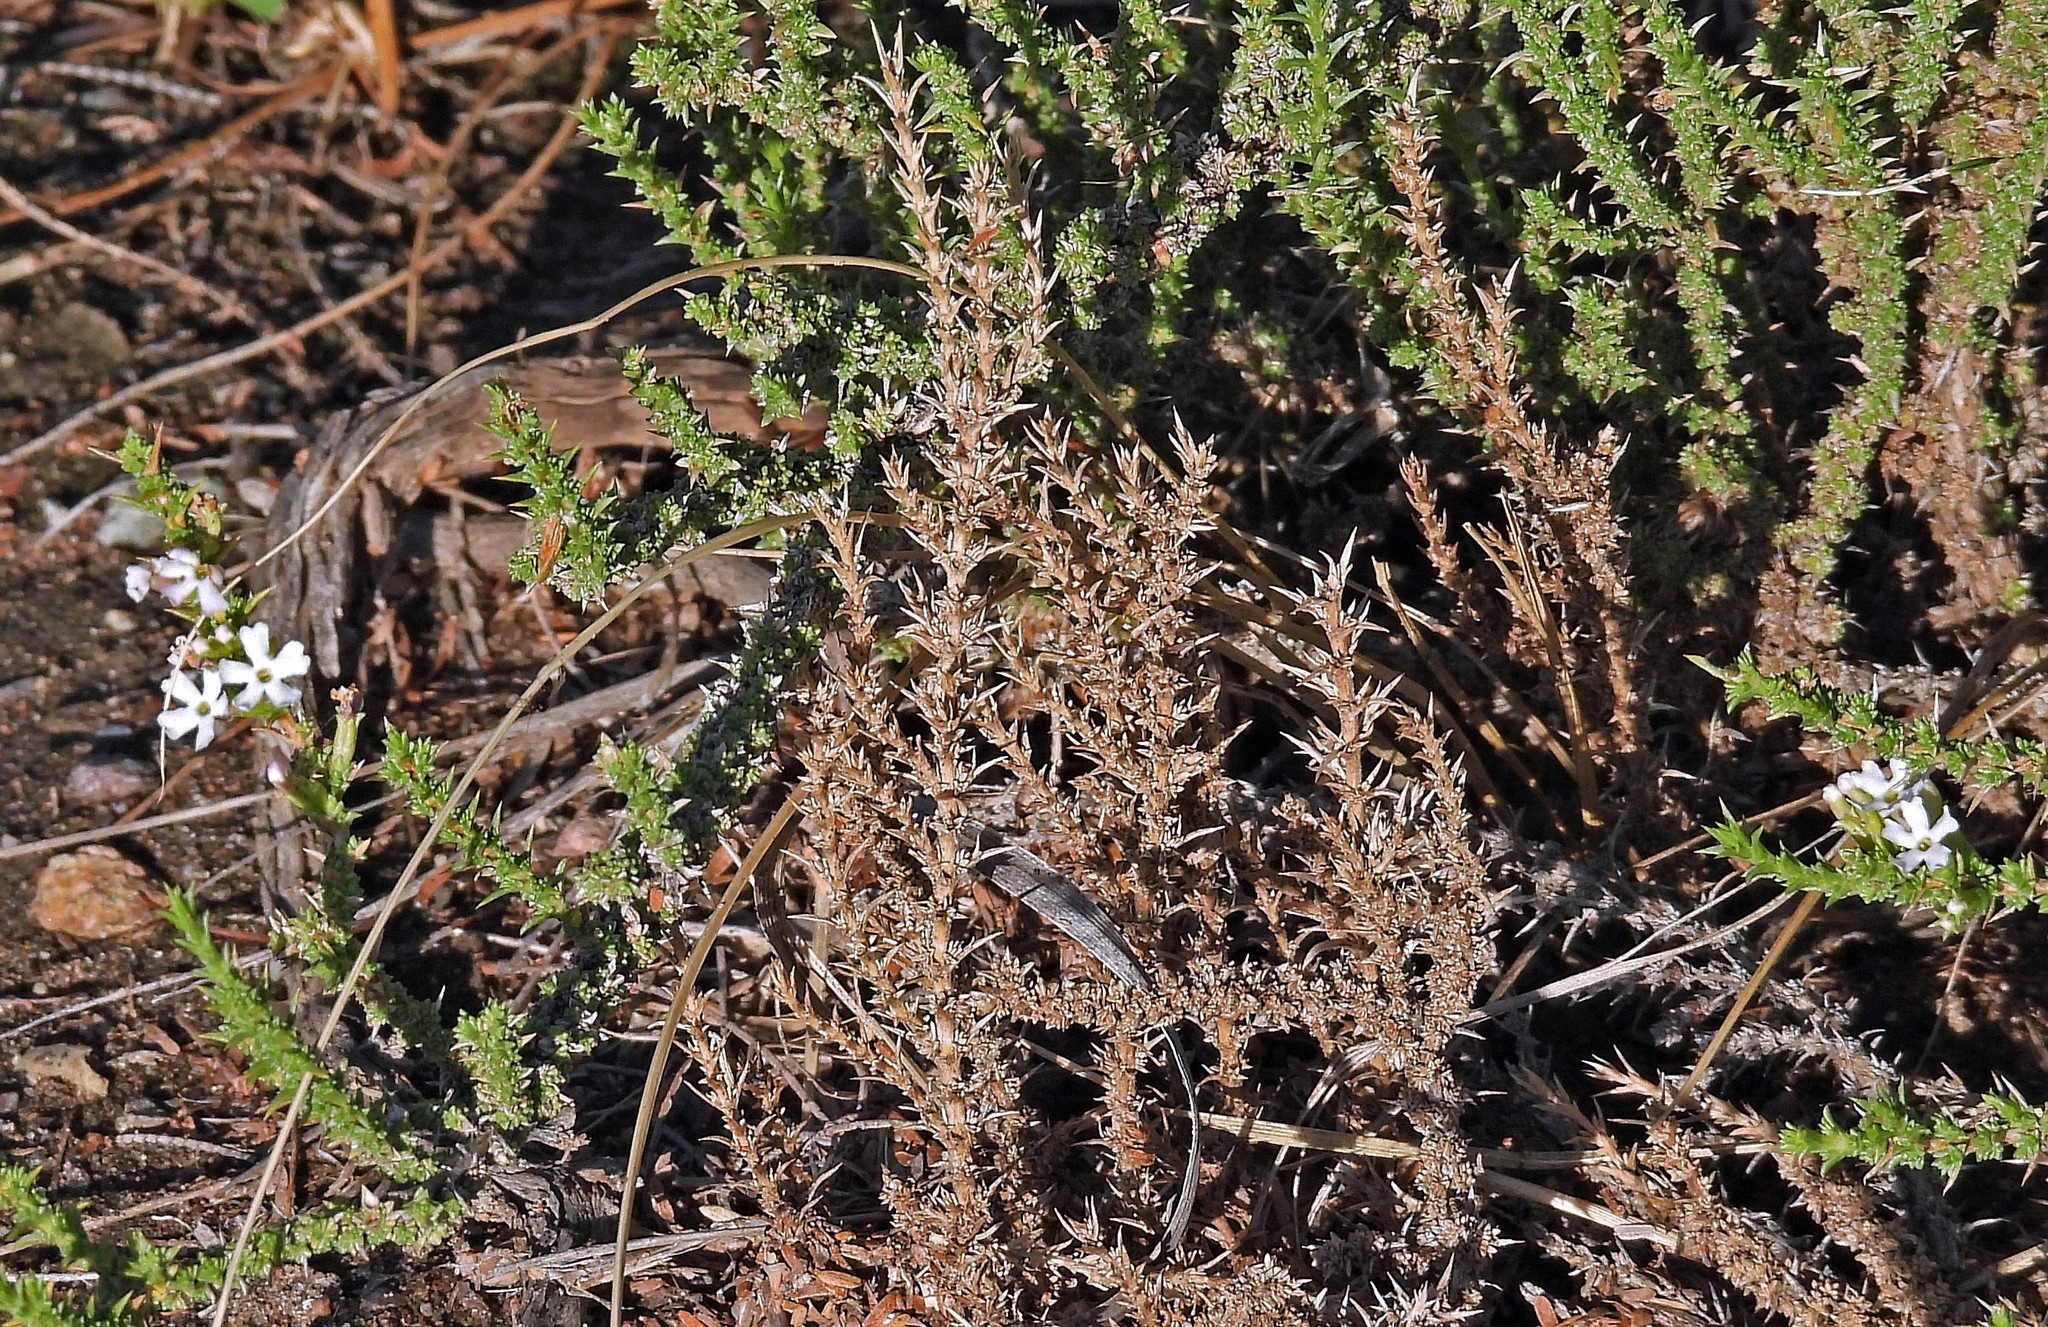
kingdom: Plantae
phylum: Tracheophyta
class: Magnoliopsida
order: Lamiales
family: Verbenaceae
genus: Junellia
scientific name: Junellia seriphioides
